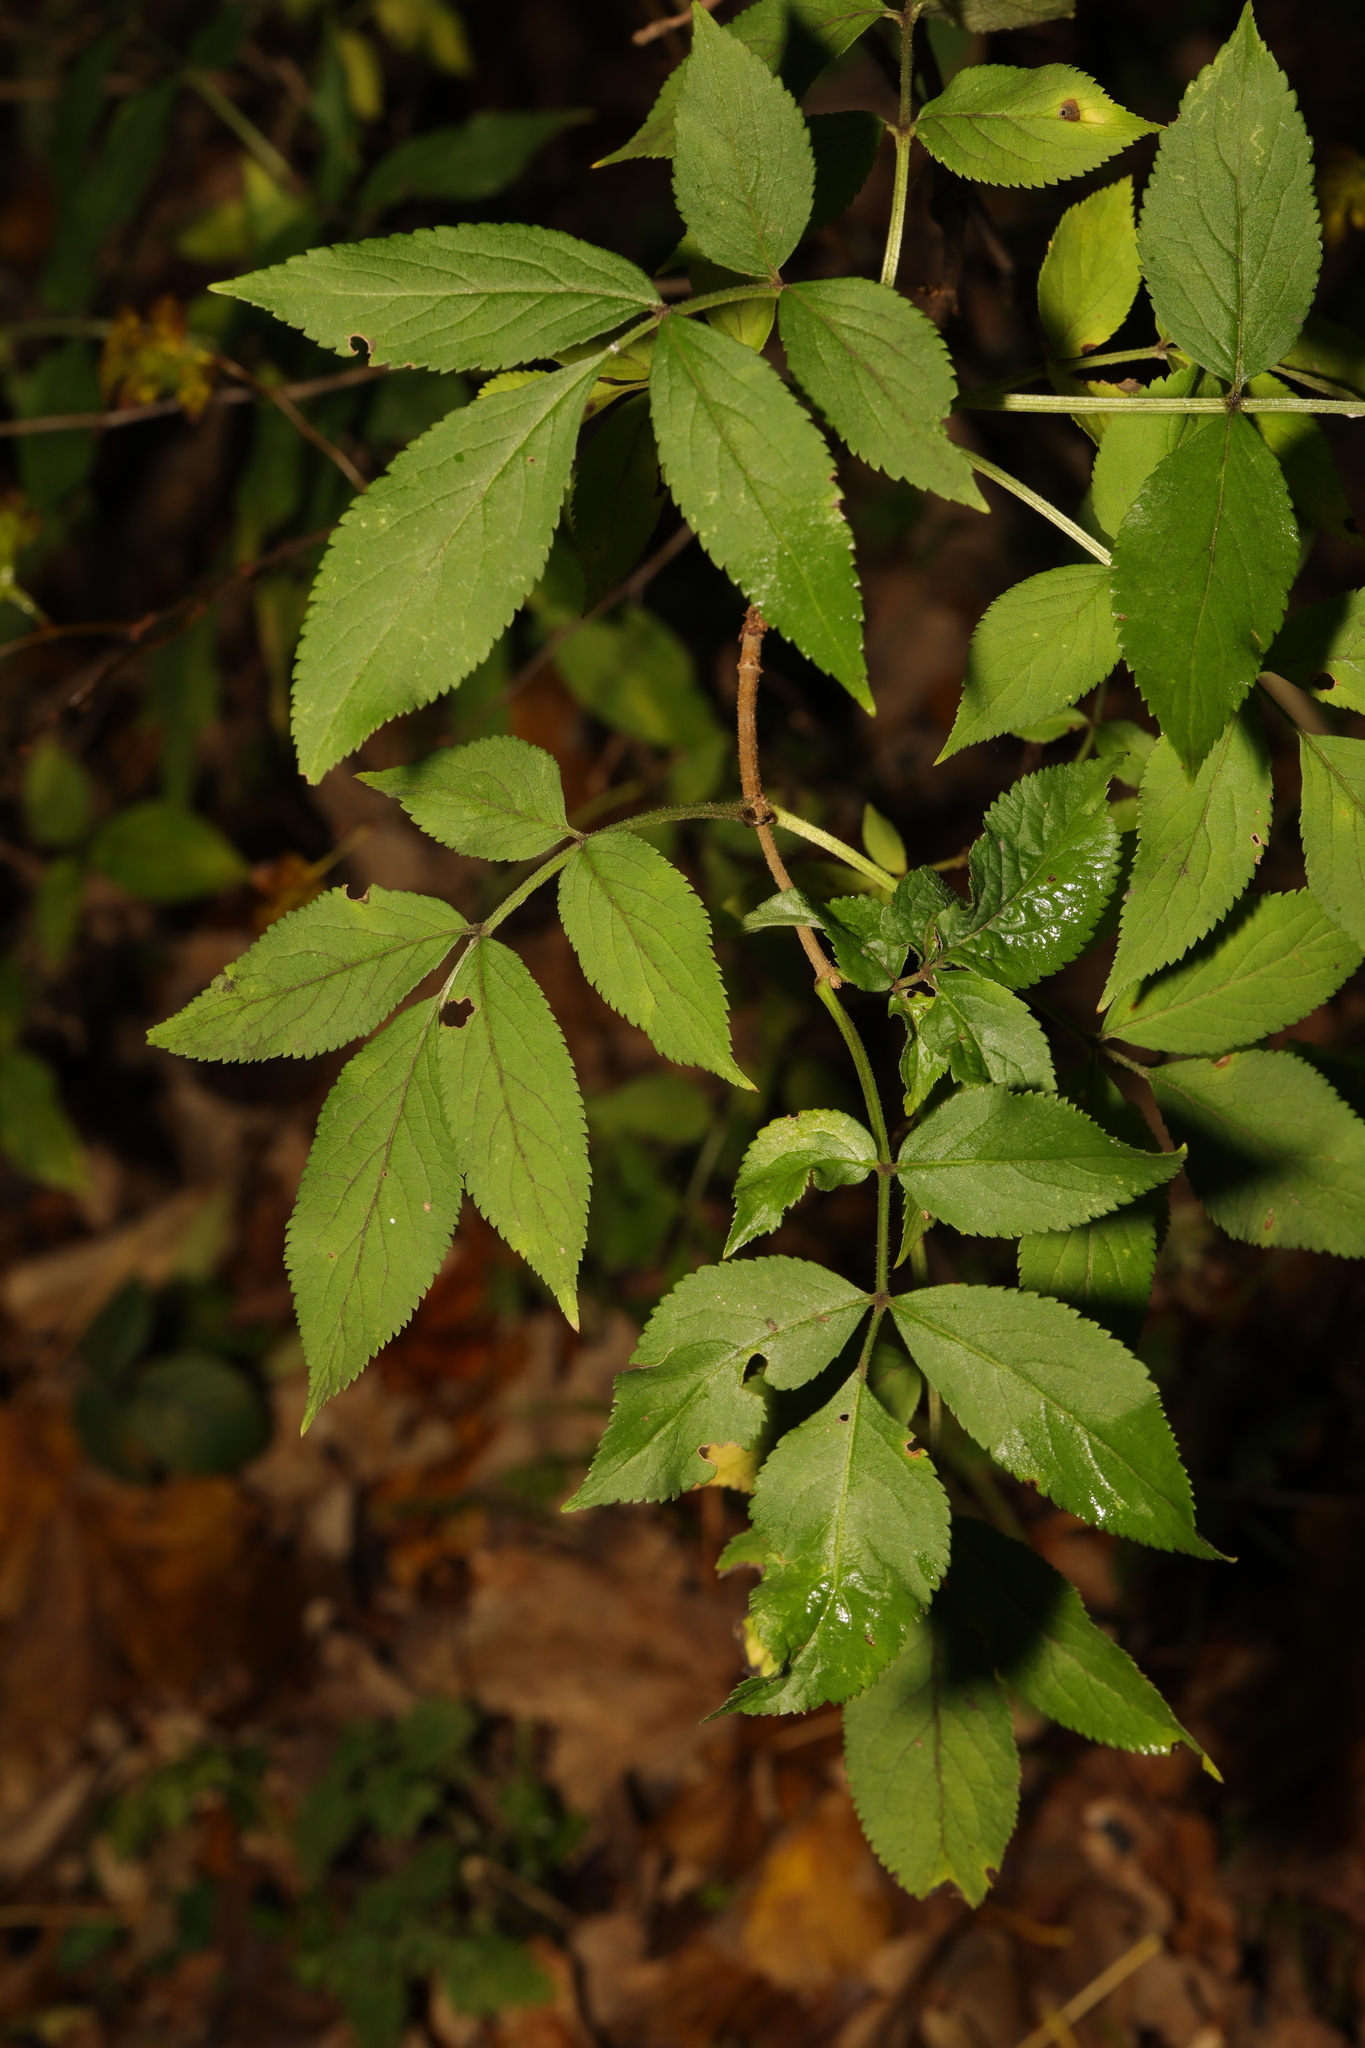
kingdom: Plantae
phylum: Tracheophyta
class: Magnoliopsida
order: Dipsacales
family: Viburnaceae
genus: Sambucus
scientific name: Sambucus nigra
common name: Elder
